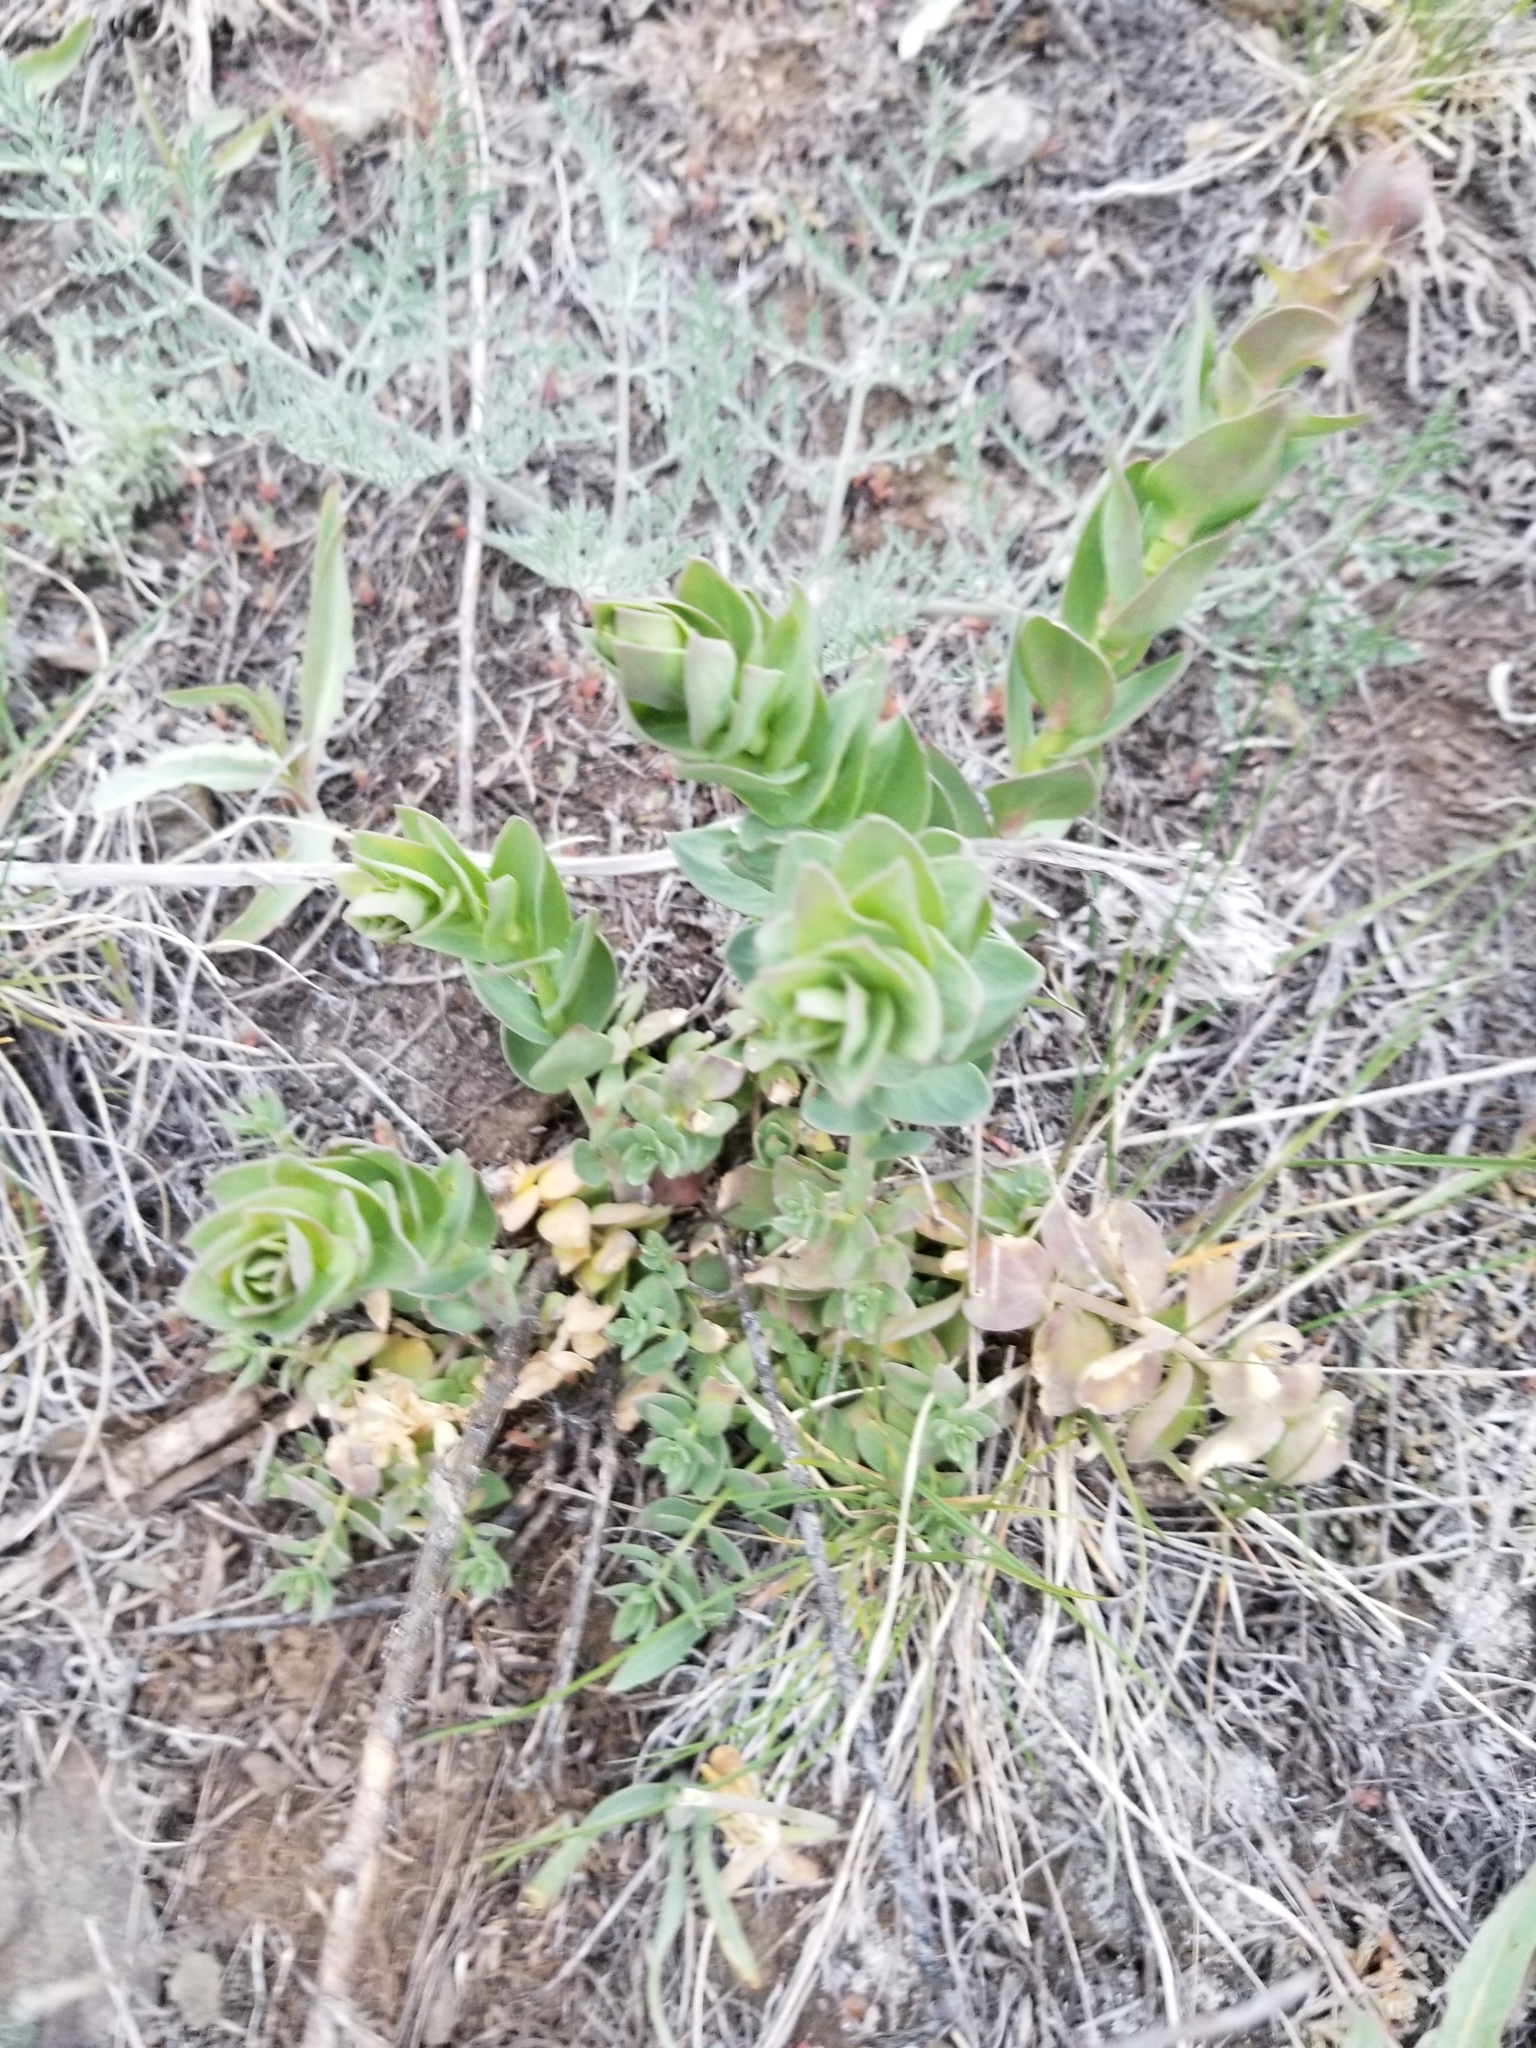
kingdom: Plantae
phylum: Tracheophyta
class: Magnoliopsida
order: Lamiales
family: Plantaginaceae
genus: Linaria
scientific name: Linaria dalmatica
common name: Dalmatian toadflax
